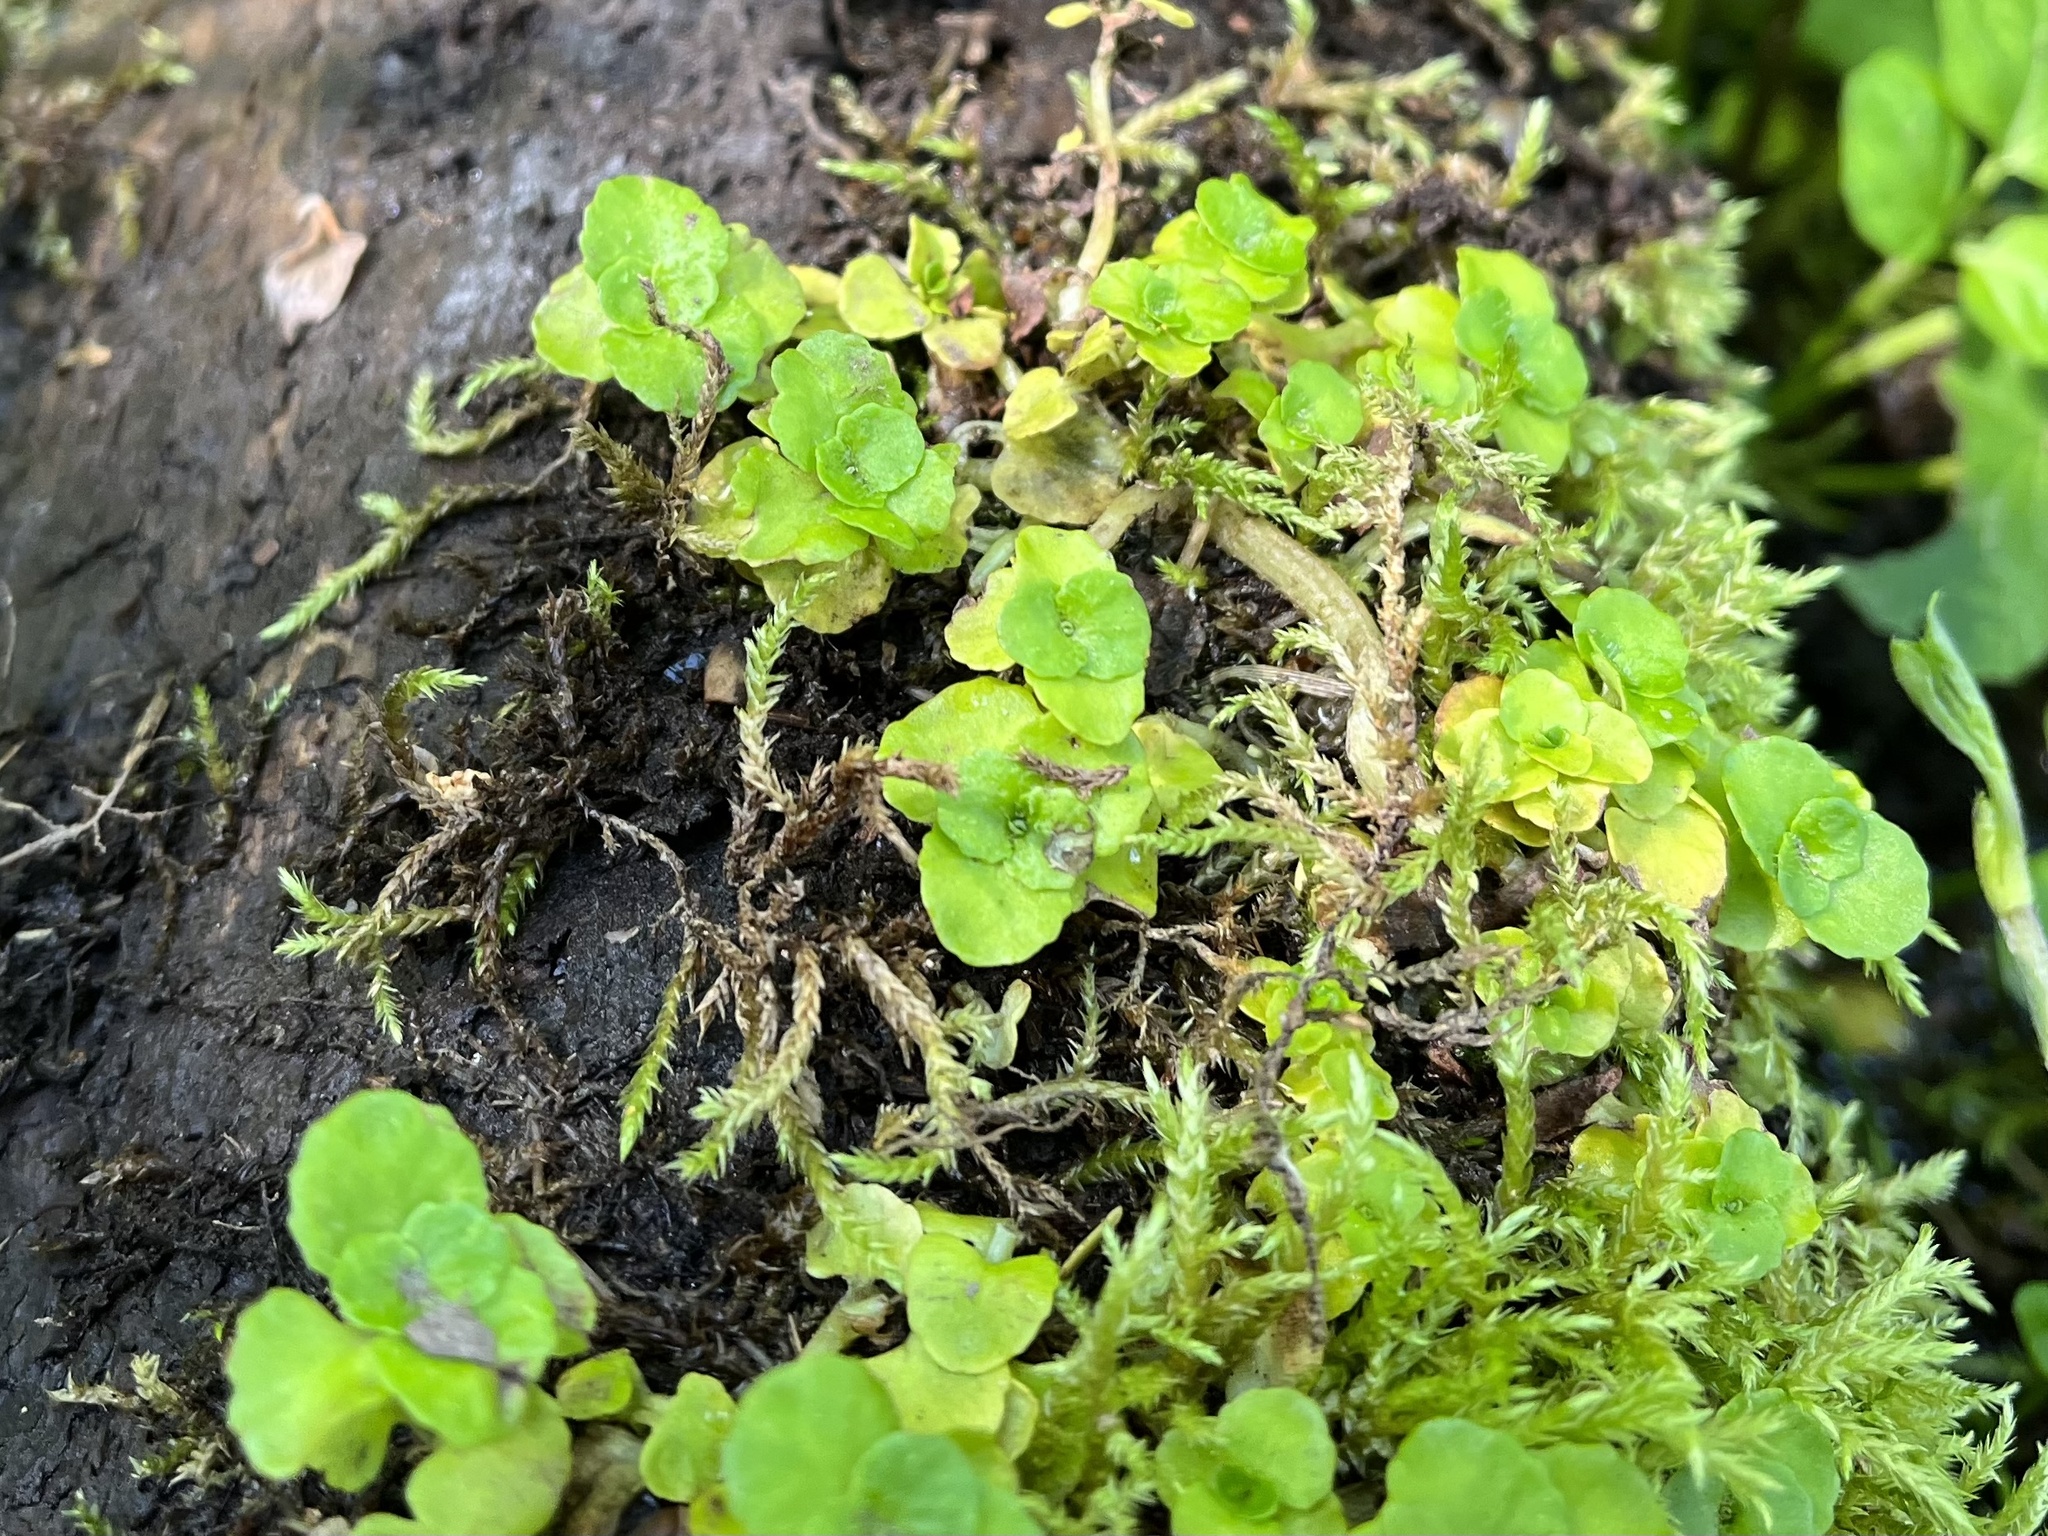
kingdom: Plantae
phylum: Tracheophyta
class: Magnoliopsida
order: Saxifragales
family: Saxifragaceae
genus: Chrysosplenium
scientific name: Chrysosplenium oppositifolium
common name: Opposite-leaved golden-saxifrage
